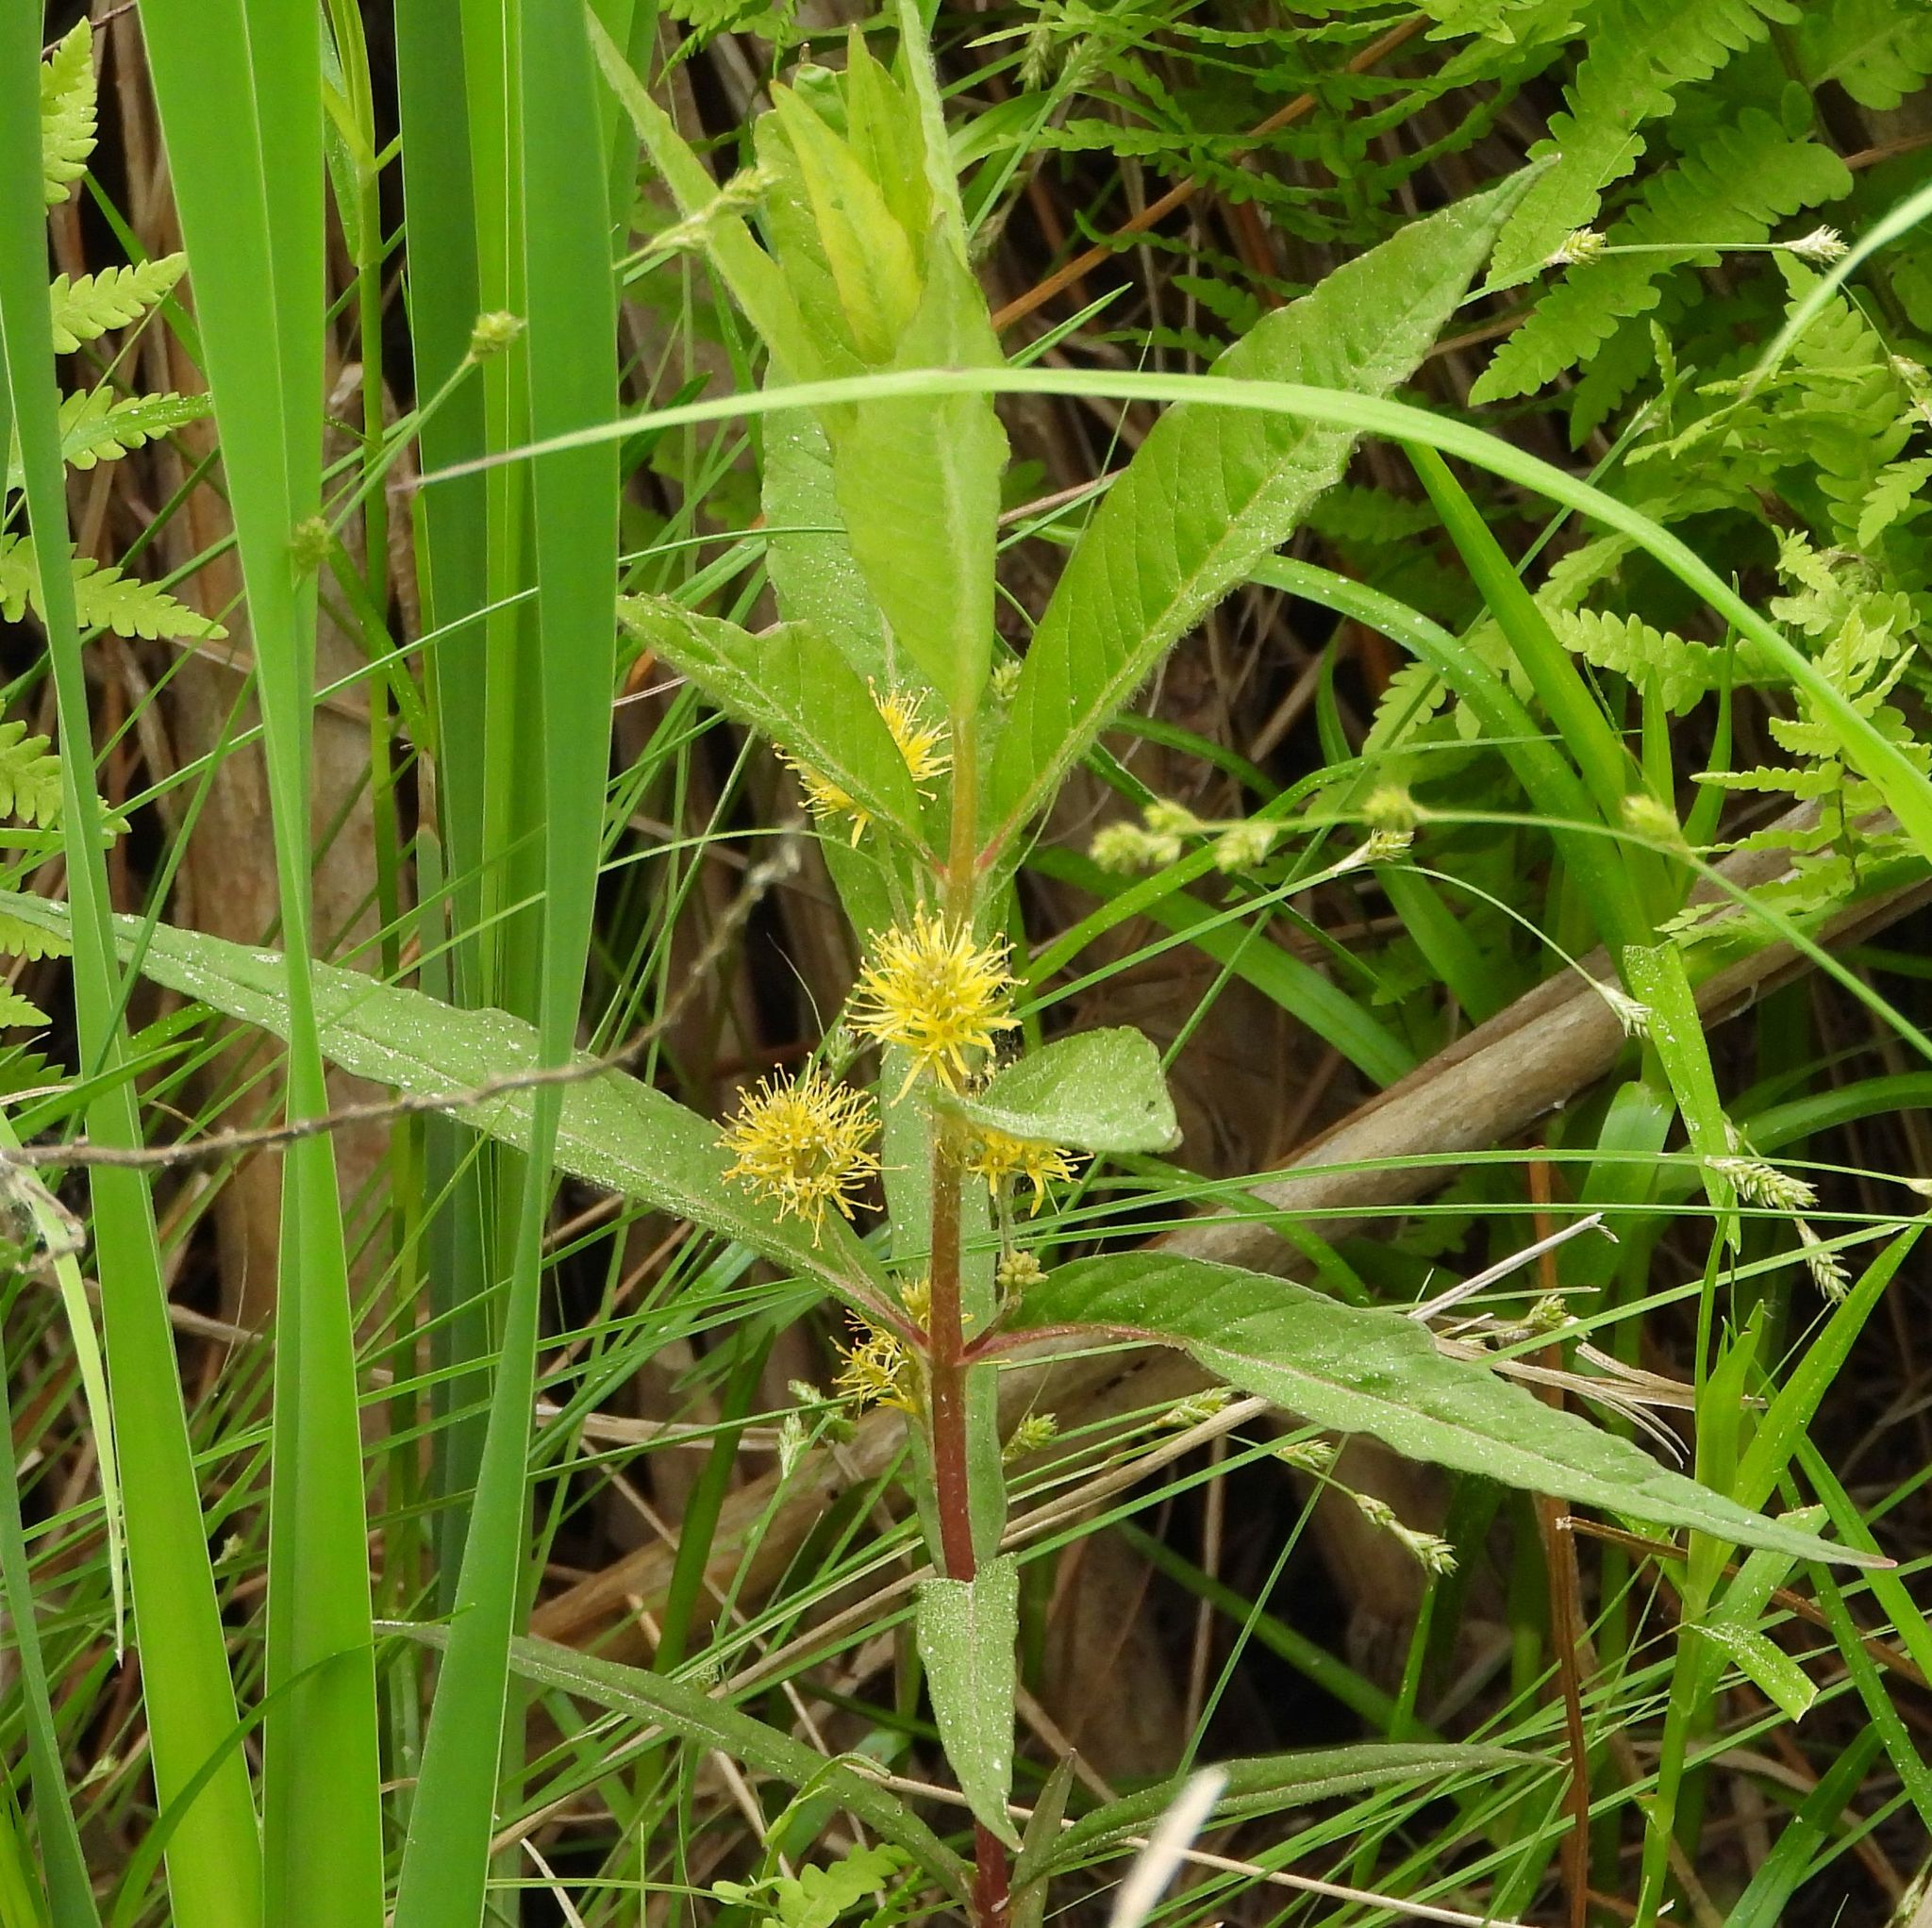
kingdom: Plantae
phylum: Tracheophyta
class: Magnoliopsida
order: Ericales
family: Primulaceae
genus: Lysimachia
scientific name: Lysimachia thyrsiflora
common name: Tufted loosestrife
